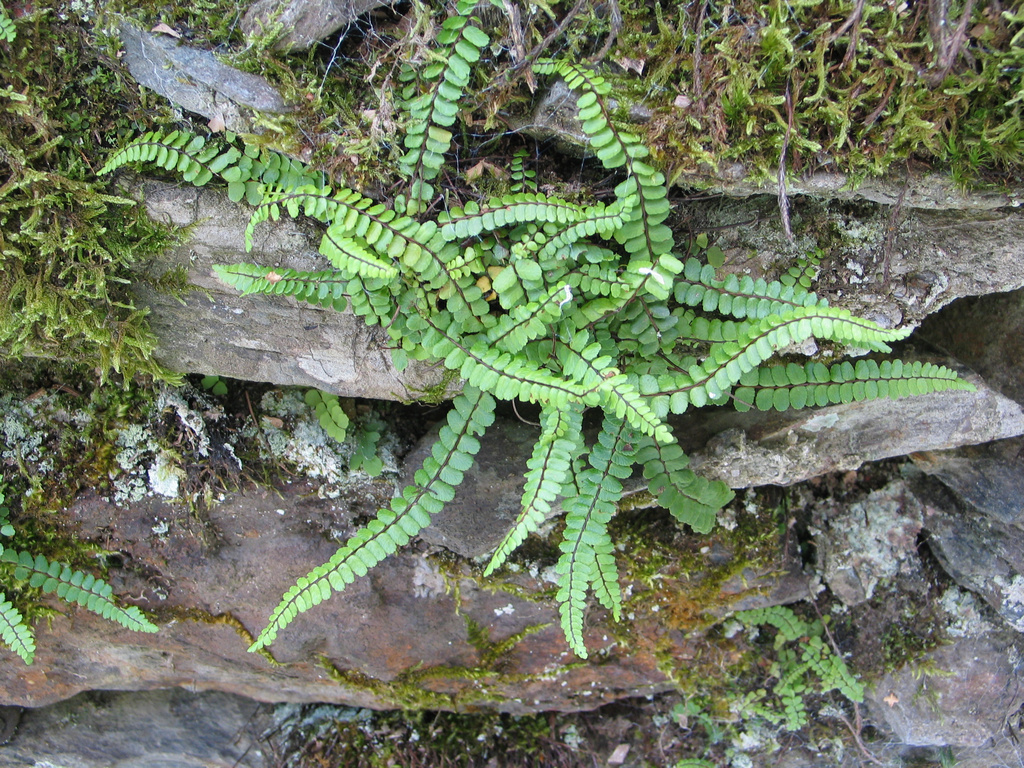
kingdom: Plantae
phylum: Tracheophyta
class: Polypodiopsida
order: Polypodiales
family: Aspleniaceae
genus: Asplenium
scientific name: Asplenium trichomanes
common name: Maidenhair spleenwort
